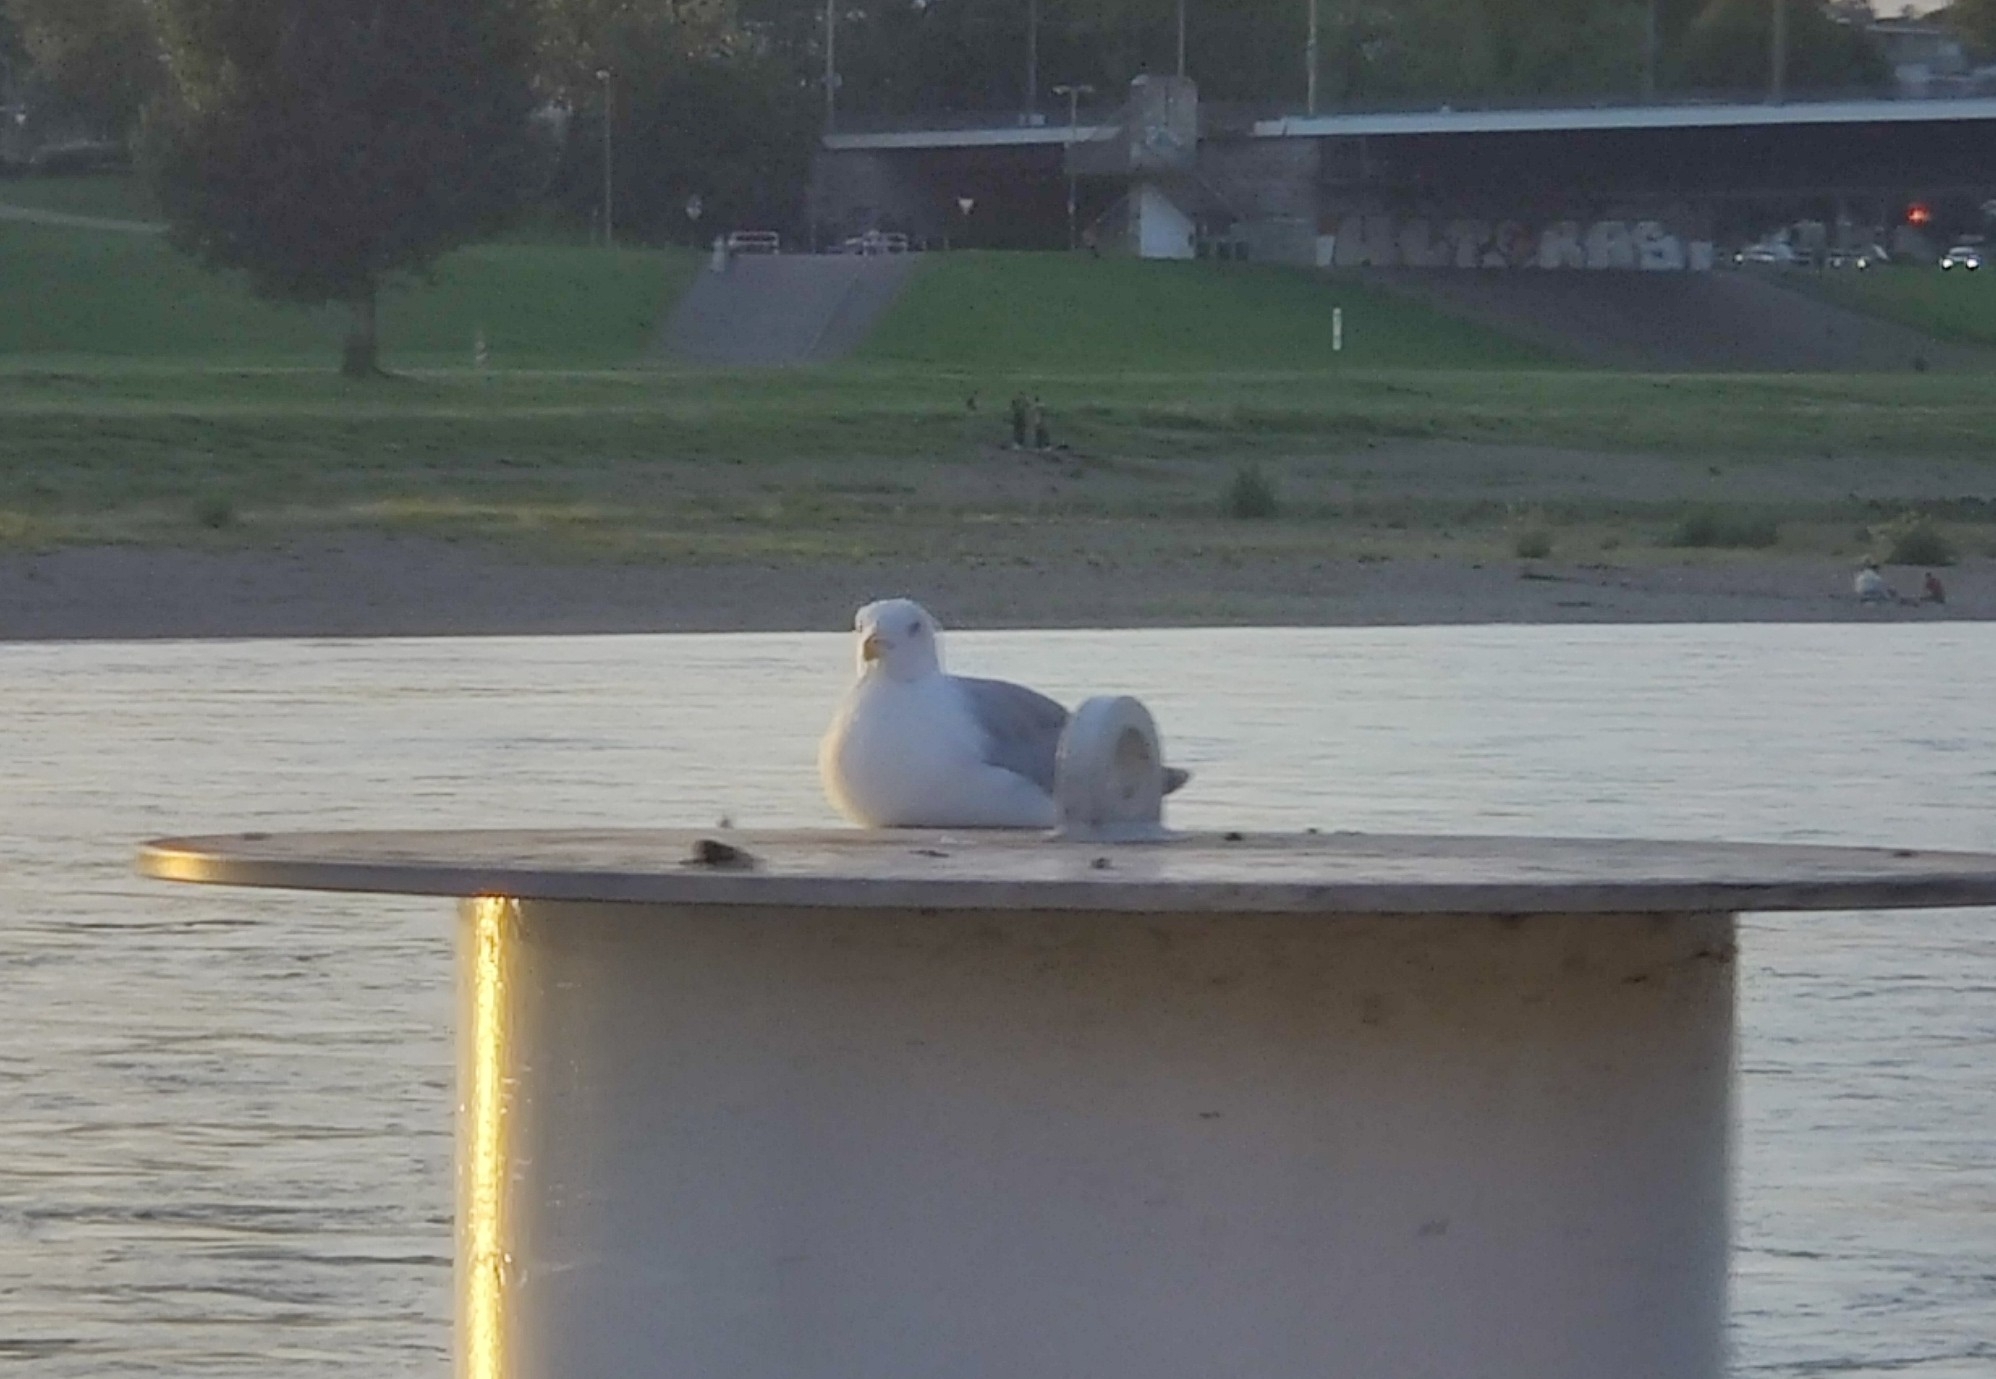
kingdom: Animalia
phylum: Chordata
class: Aves
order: Charadriiformes
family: Laridae
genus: Larus
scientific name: Larus argentatus
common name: Herring gull
